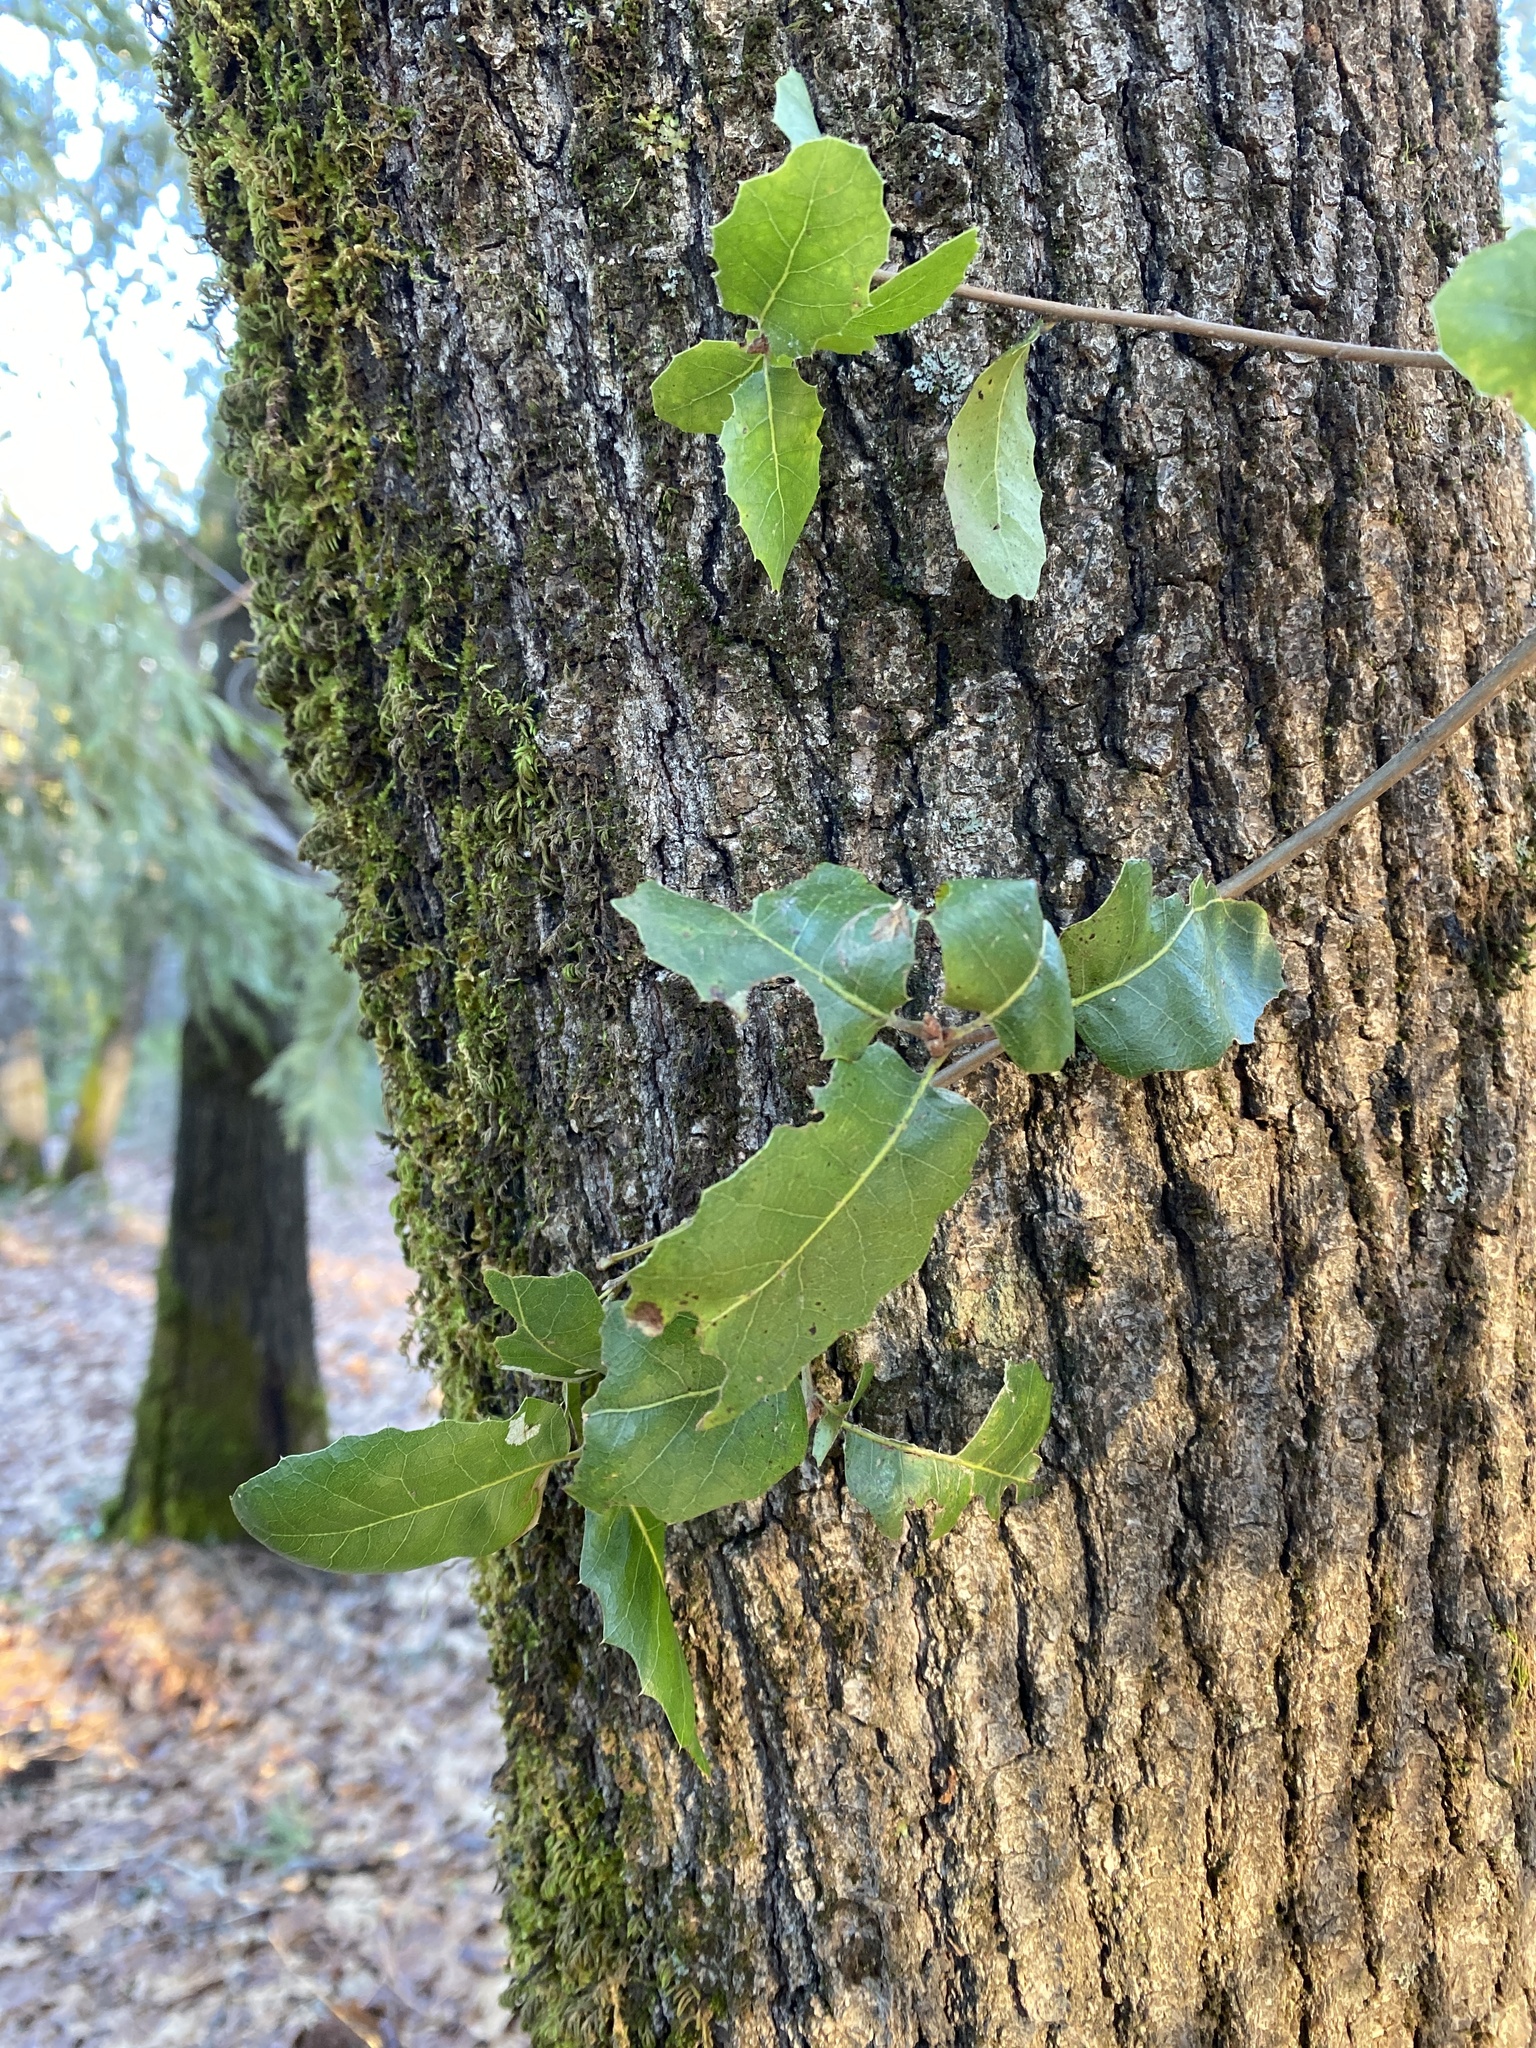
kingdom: Plantae
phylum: Tracheophyta
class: Magnoliopsida
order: Fagales
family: Fagaceae
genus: Quercus
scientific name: Quercus wislizeni
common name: Interior live oak
